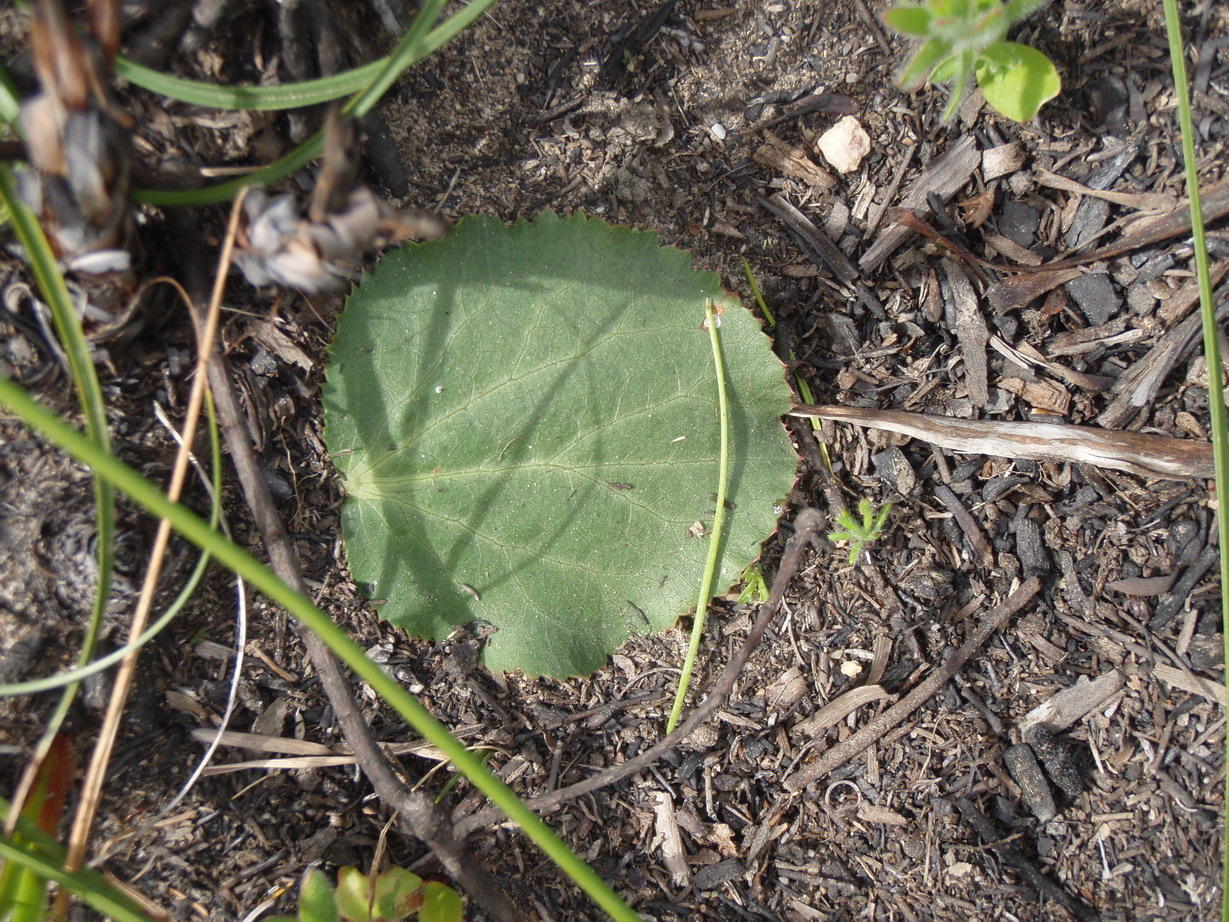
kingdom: Plantae
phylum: Tracheophyta
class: Magnoliopsida
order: Apiales
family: Apiaceae
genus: Lichtensteinia
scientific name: Lichtensteinia latifolia
